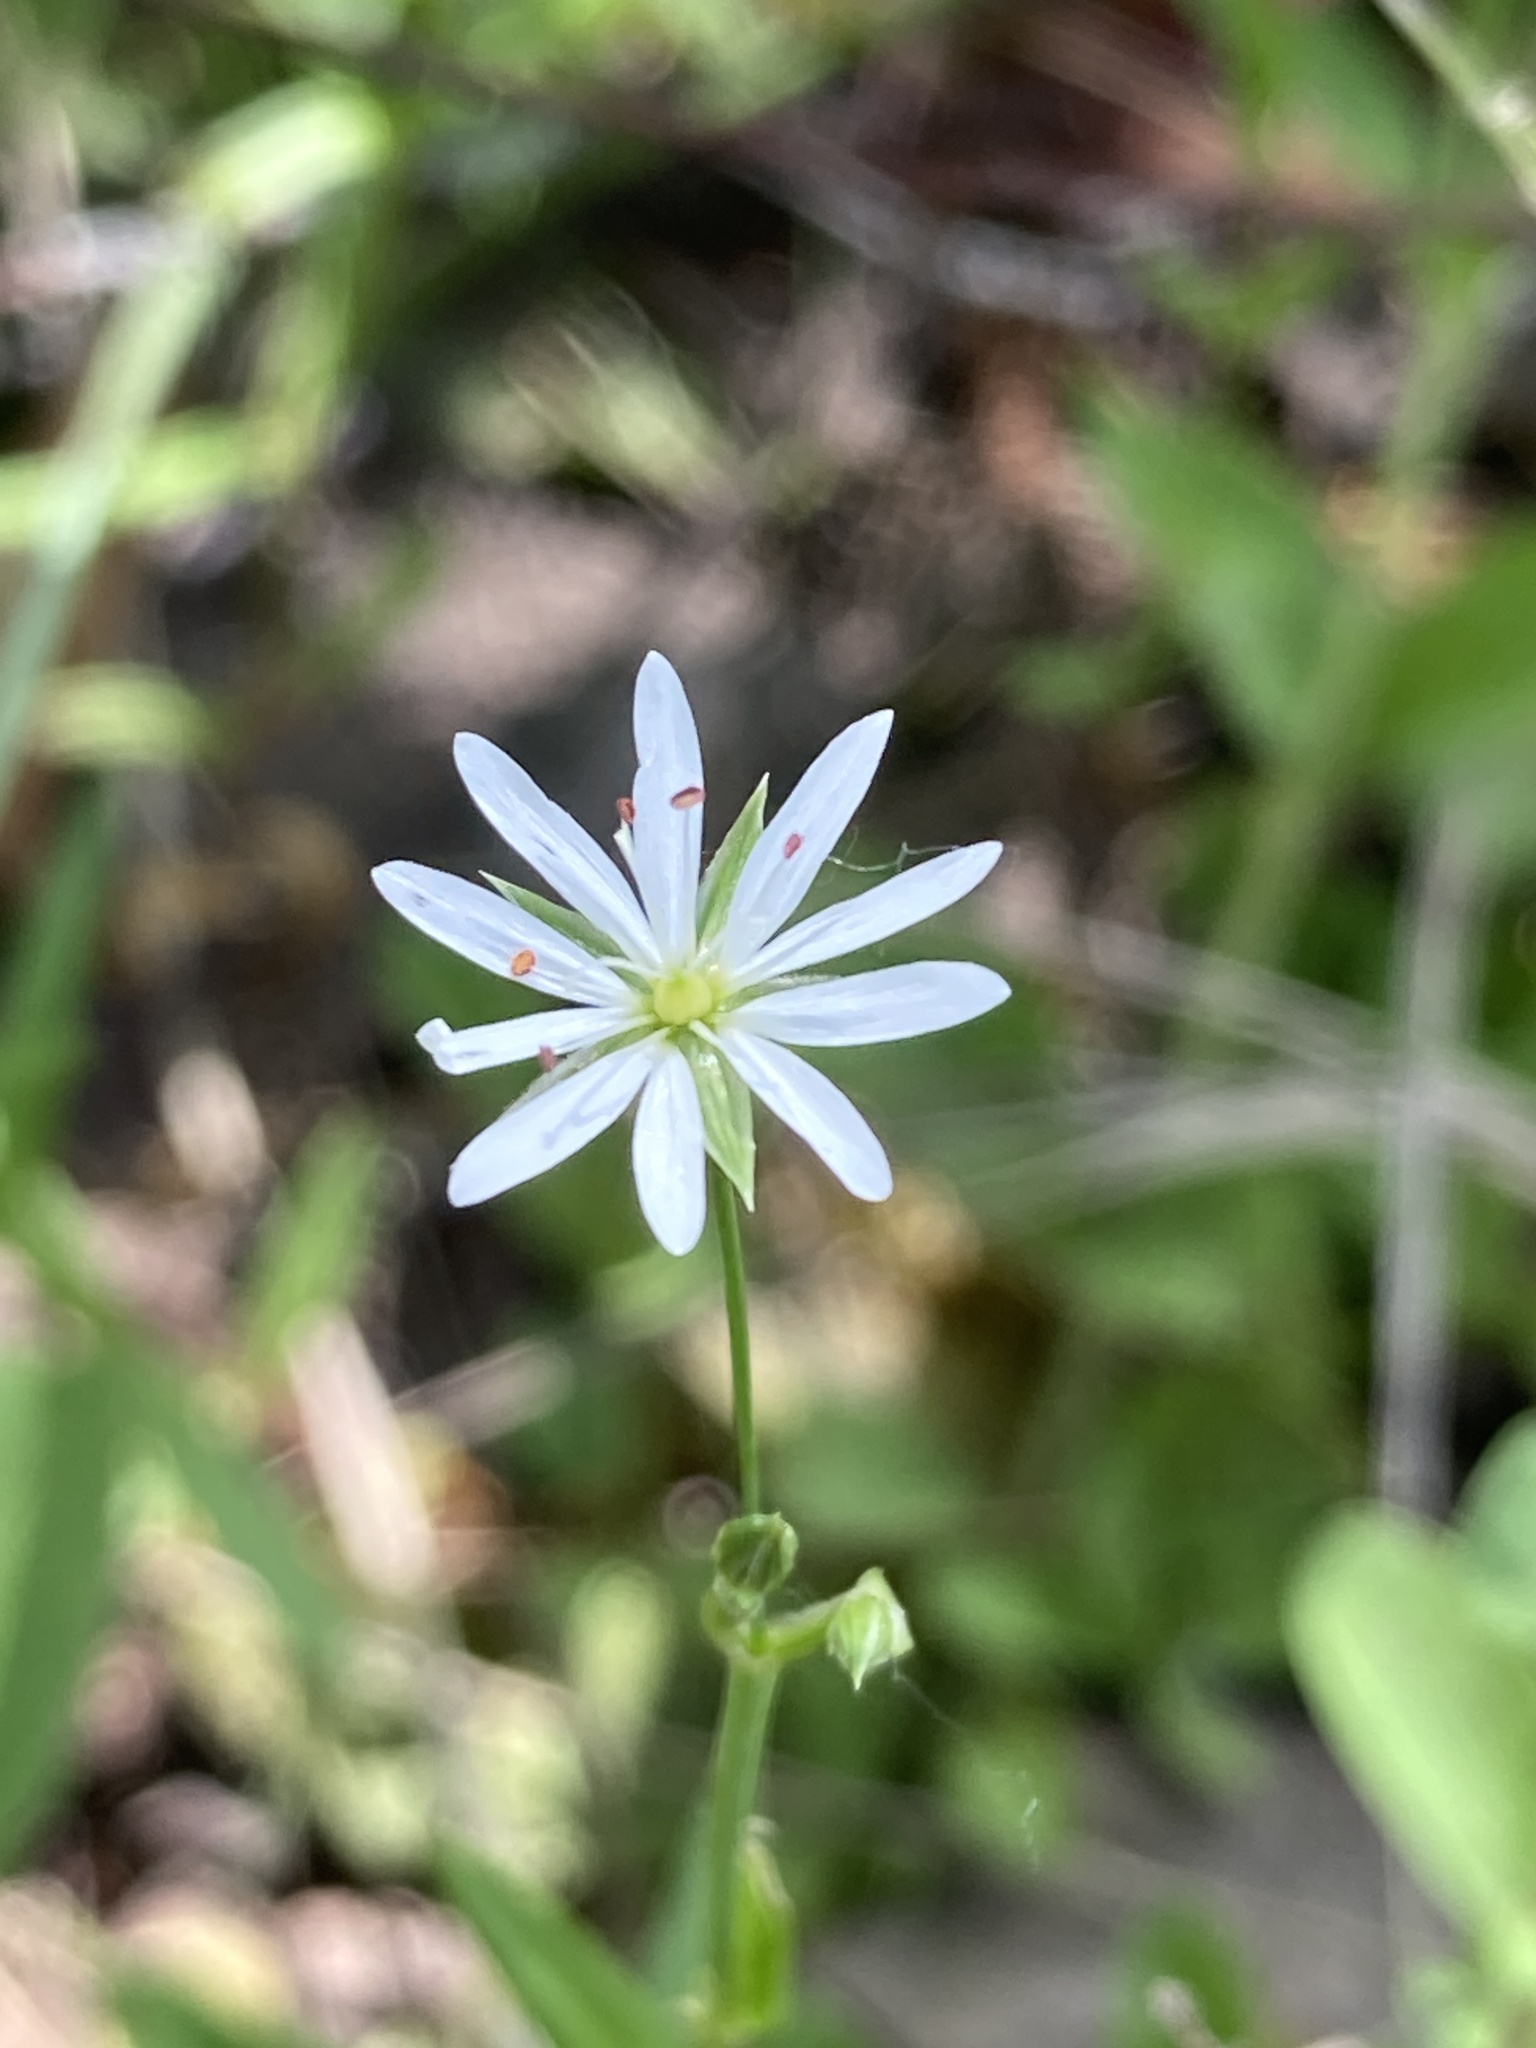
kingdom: Plantae
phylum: Tracheophyta
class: Magnoliopsida
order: Caryophyllales
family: Caryophyllaceae
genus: Stellaria
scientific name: Stellaria graminea
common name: Grass-like starwort
